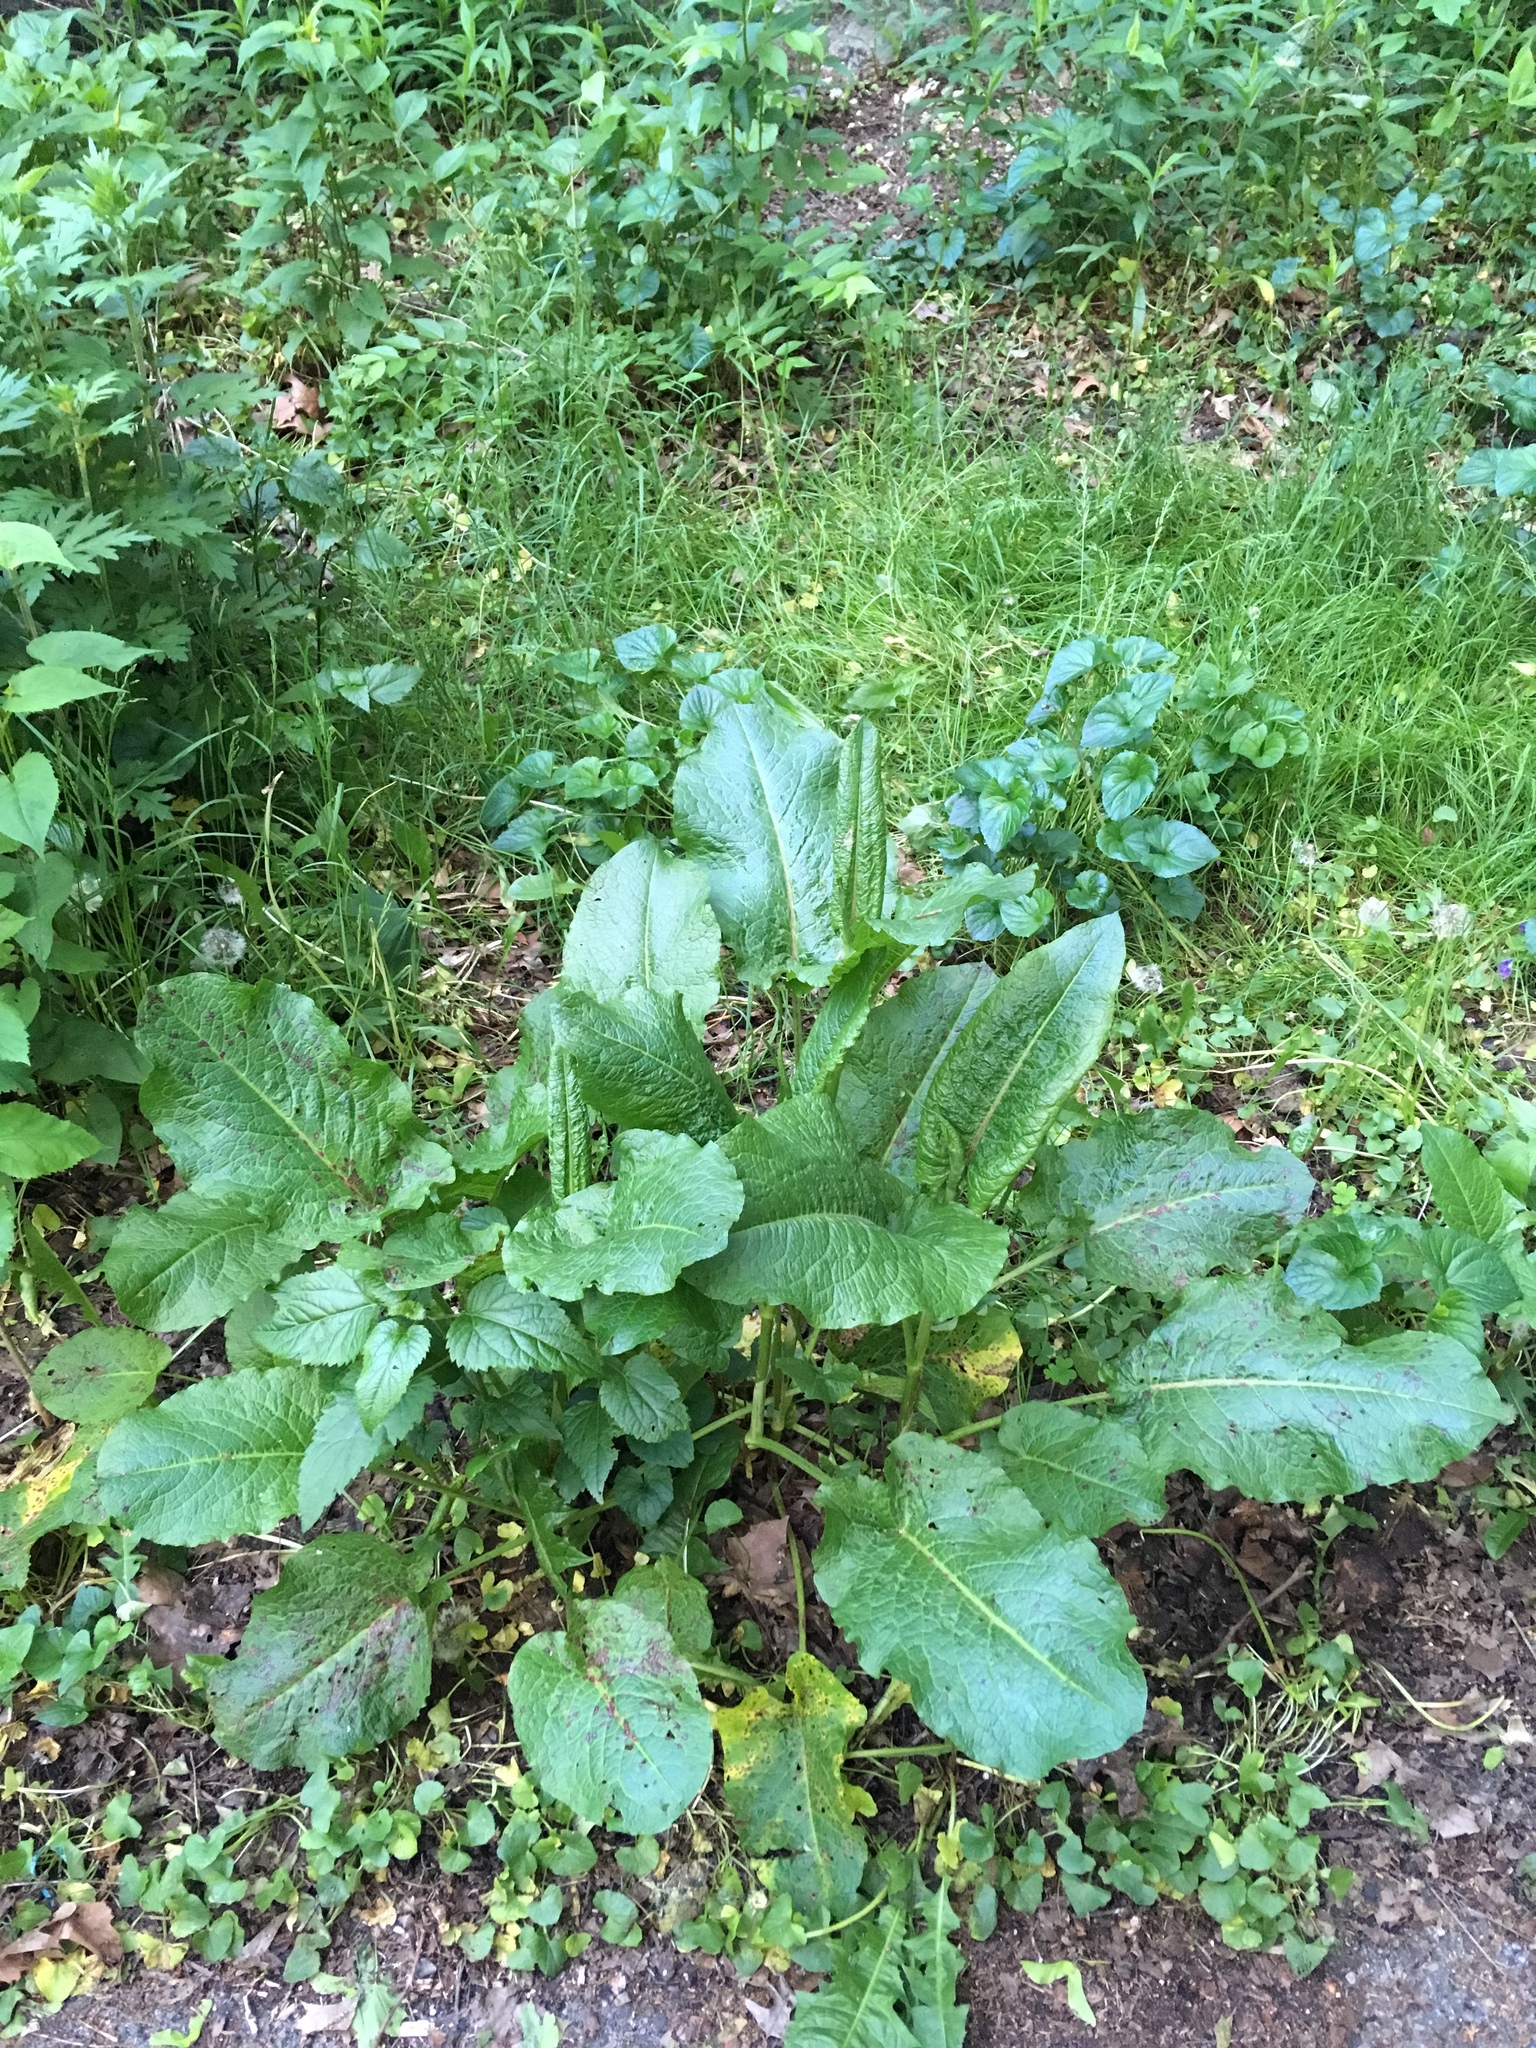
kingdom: Plantae
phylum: Tracheophyta
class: Magnoliopsida
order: Caryophyllales
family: Polygonaceae
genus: Rumex
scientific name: Rumex obtusifolius
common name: Bitter dock
